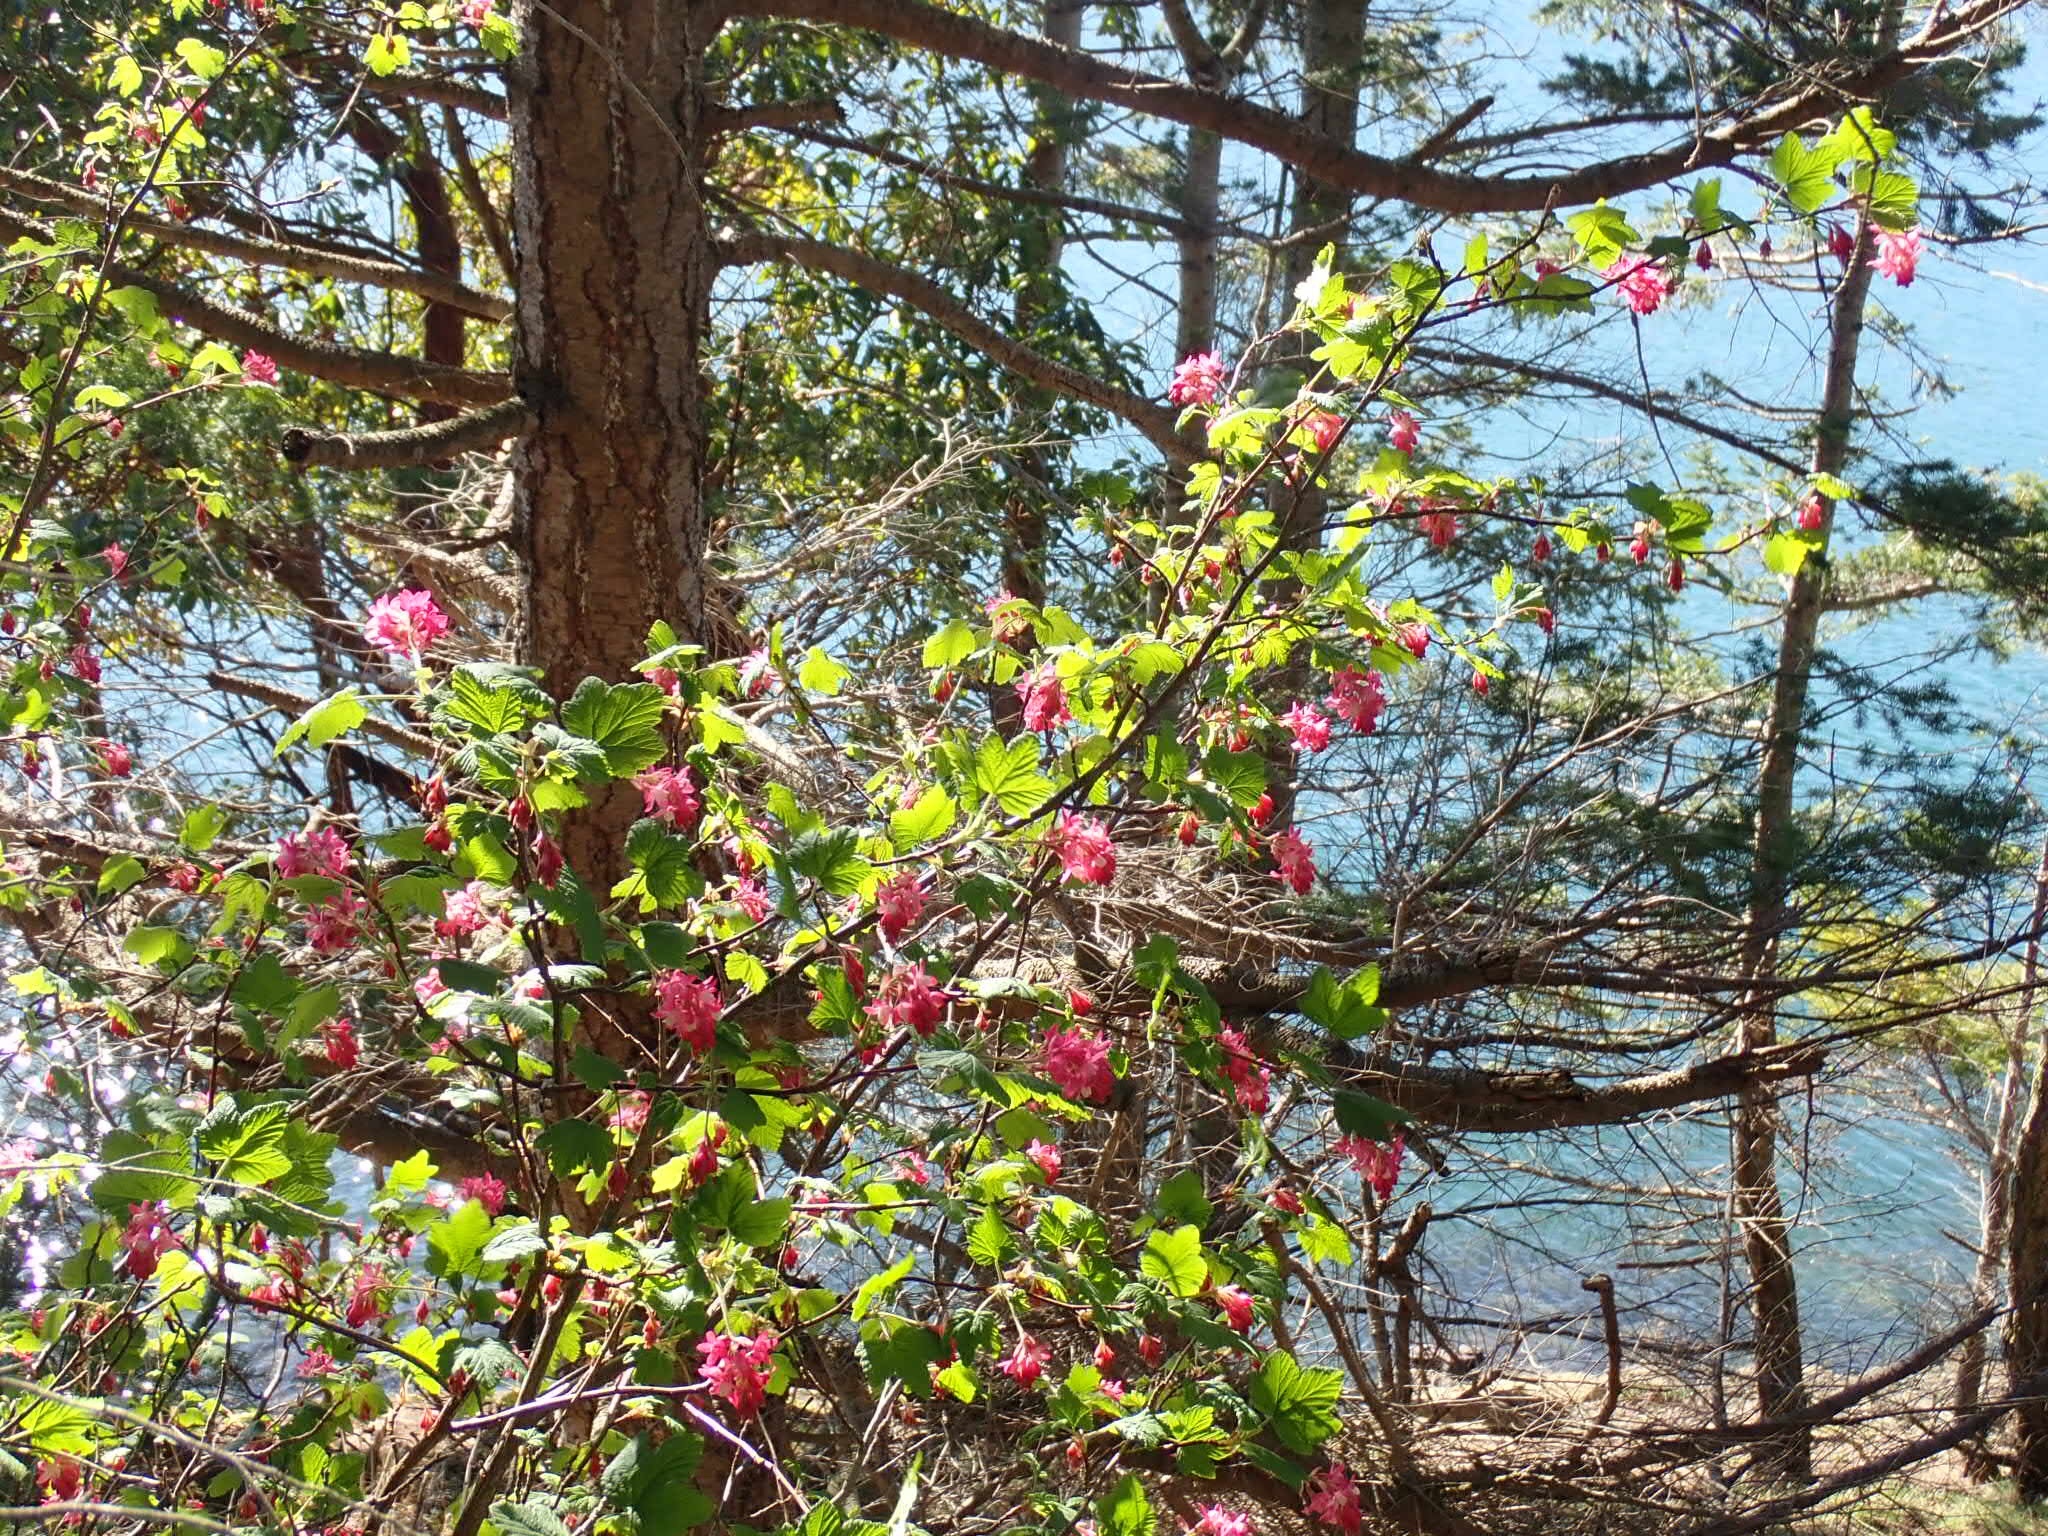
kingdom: Plantae
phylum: Tracheophyta
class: Magnoliopsida
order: Saxifragales
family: Grossulariaceae
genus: Ribes
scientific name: Ribes sanguineum
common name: Flowering currant
